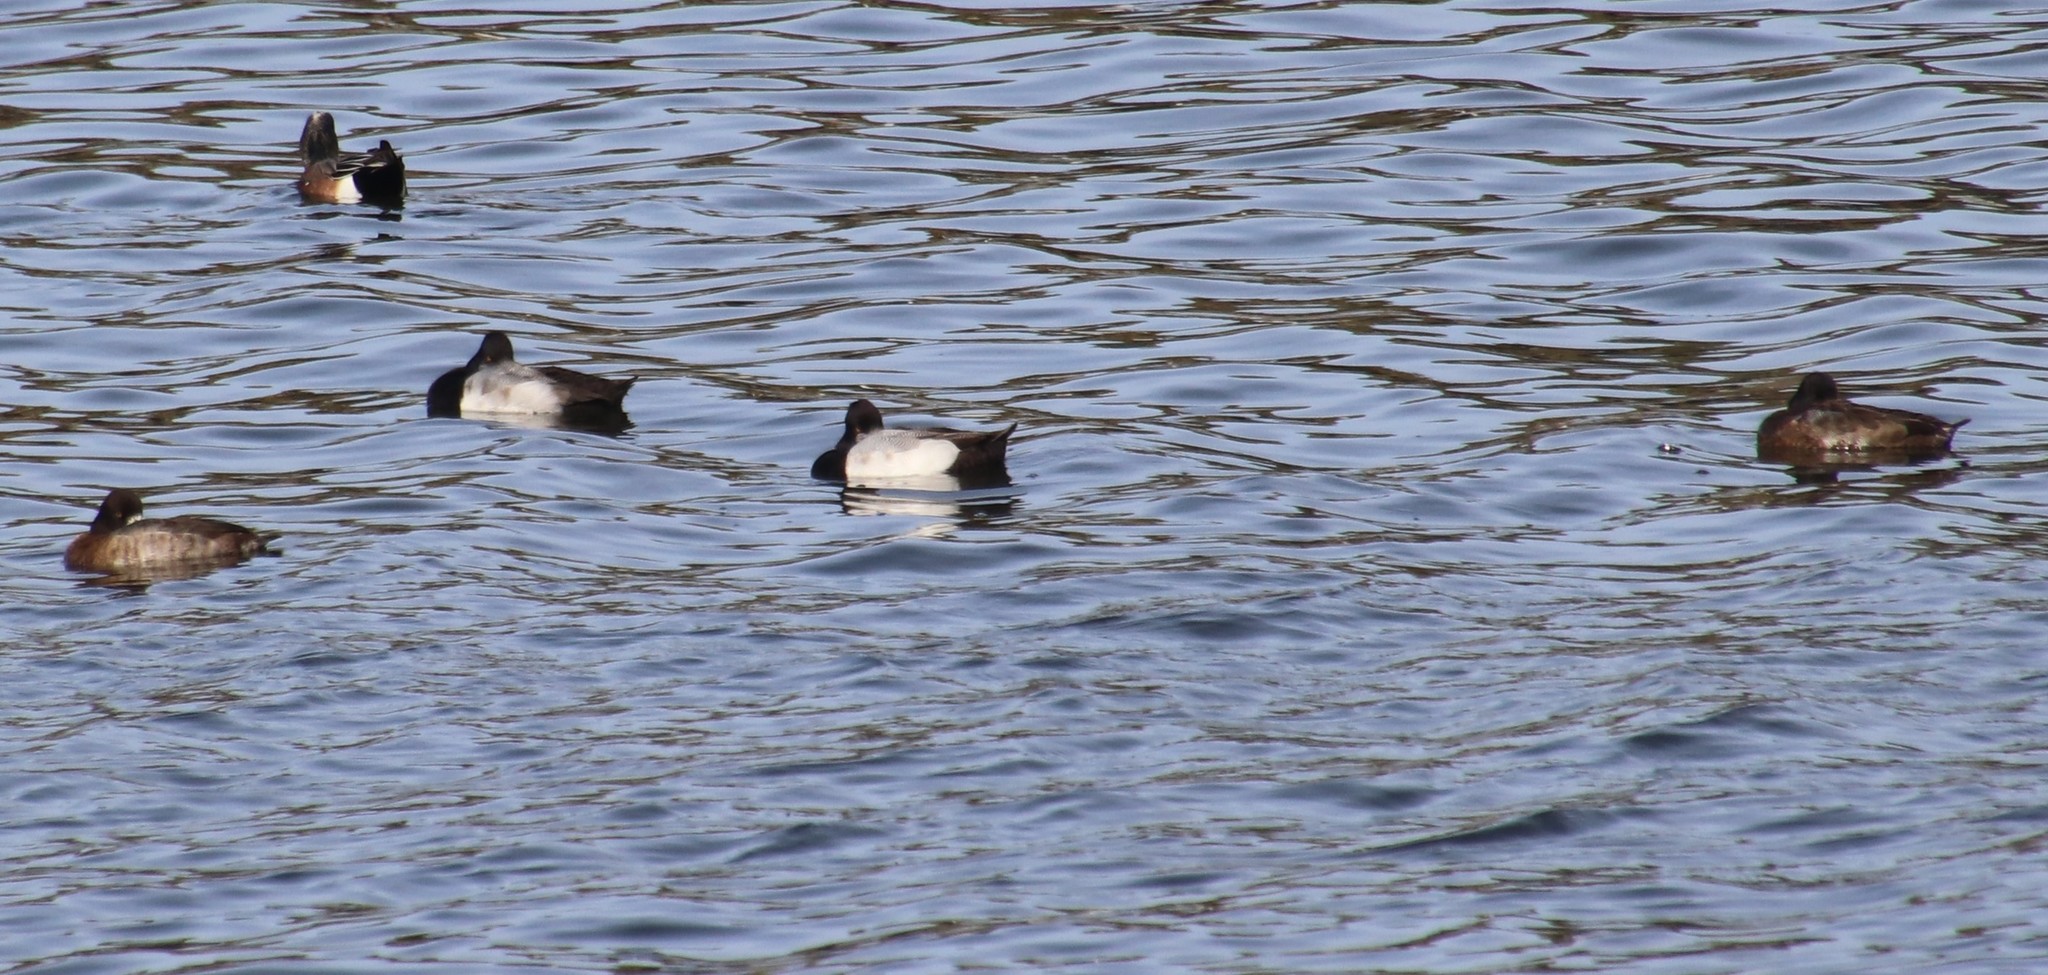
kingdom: Animalia
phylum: Chordata
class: Aves
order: Anseriformes
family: Anatidae
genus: Aythya
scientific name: Aythya affinis
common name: Lesser scaup
